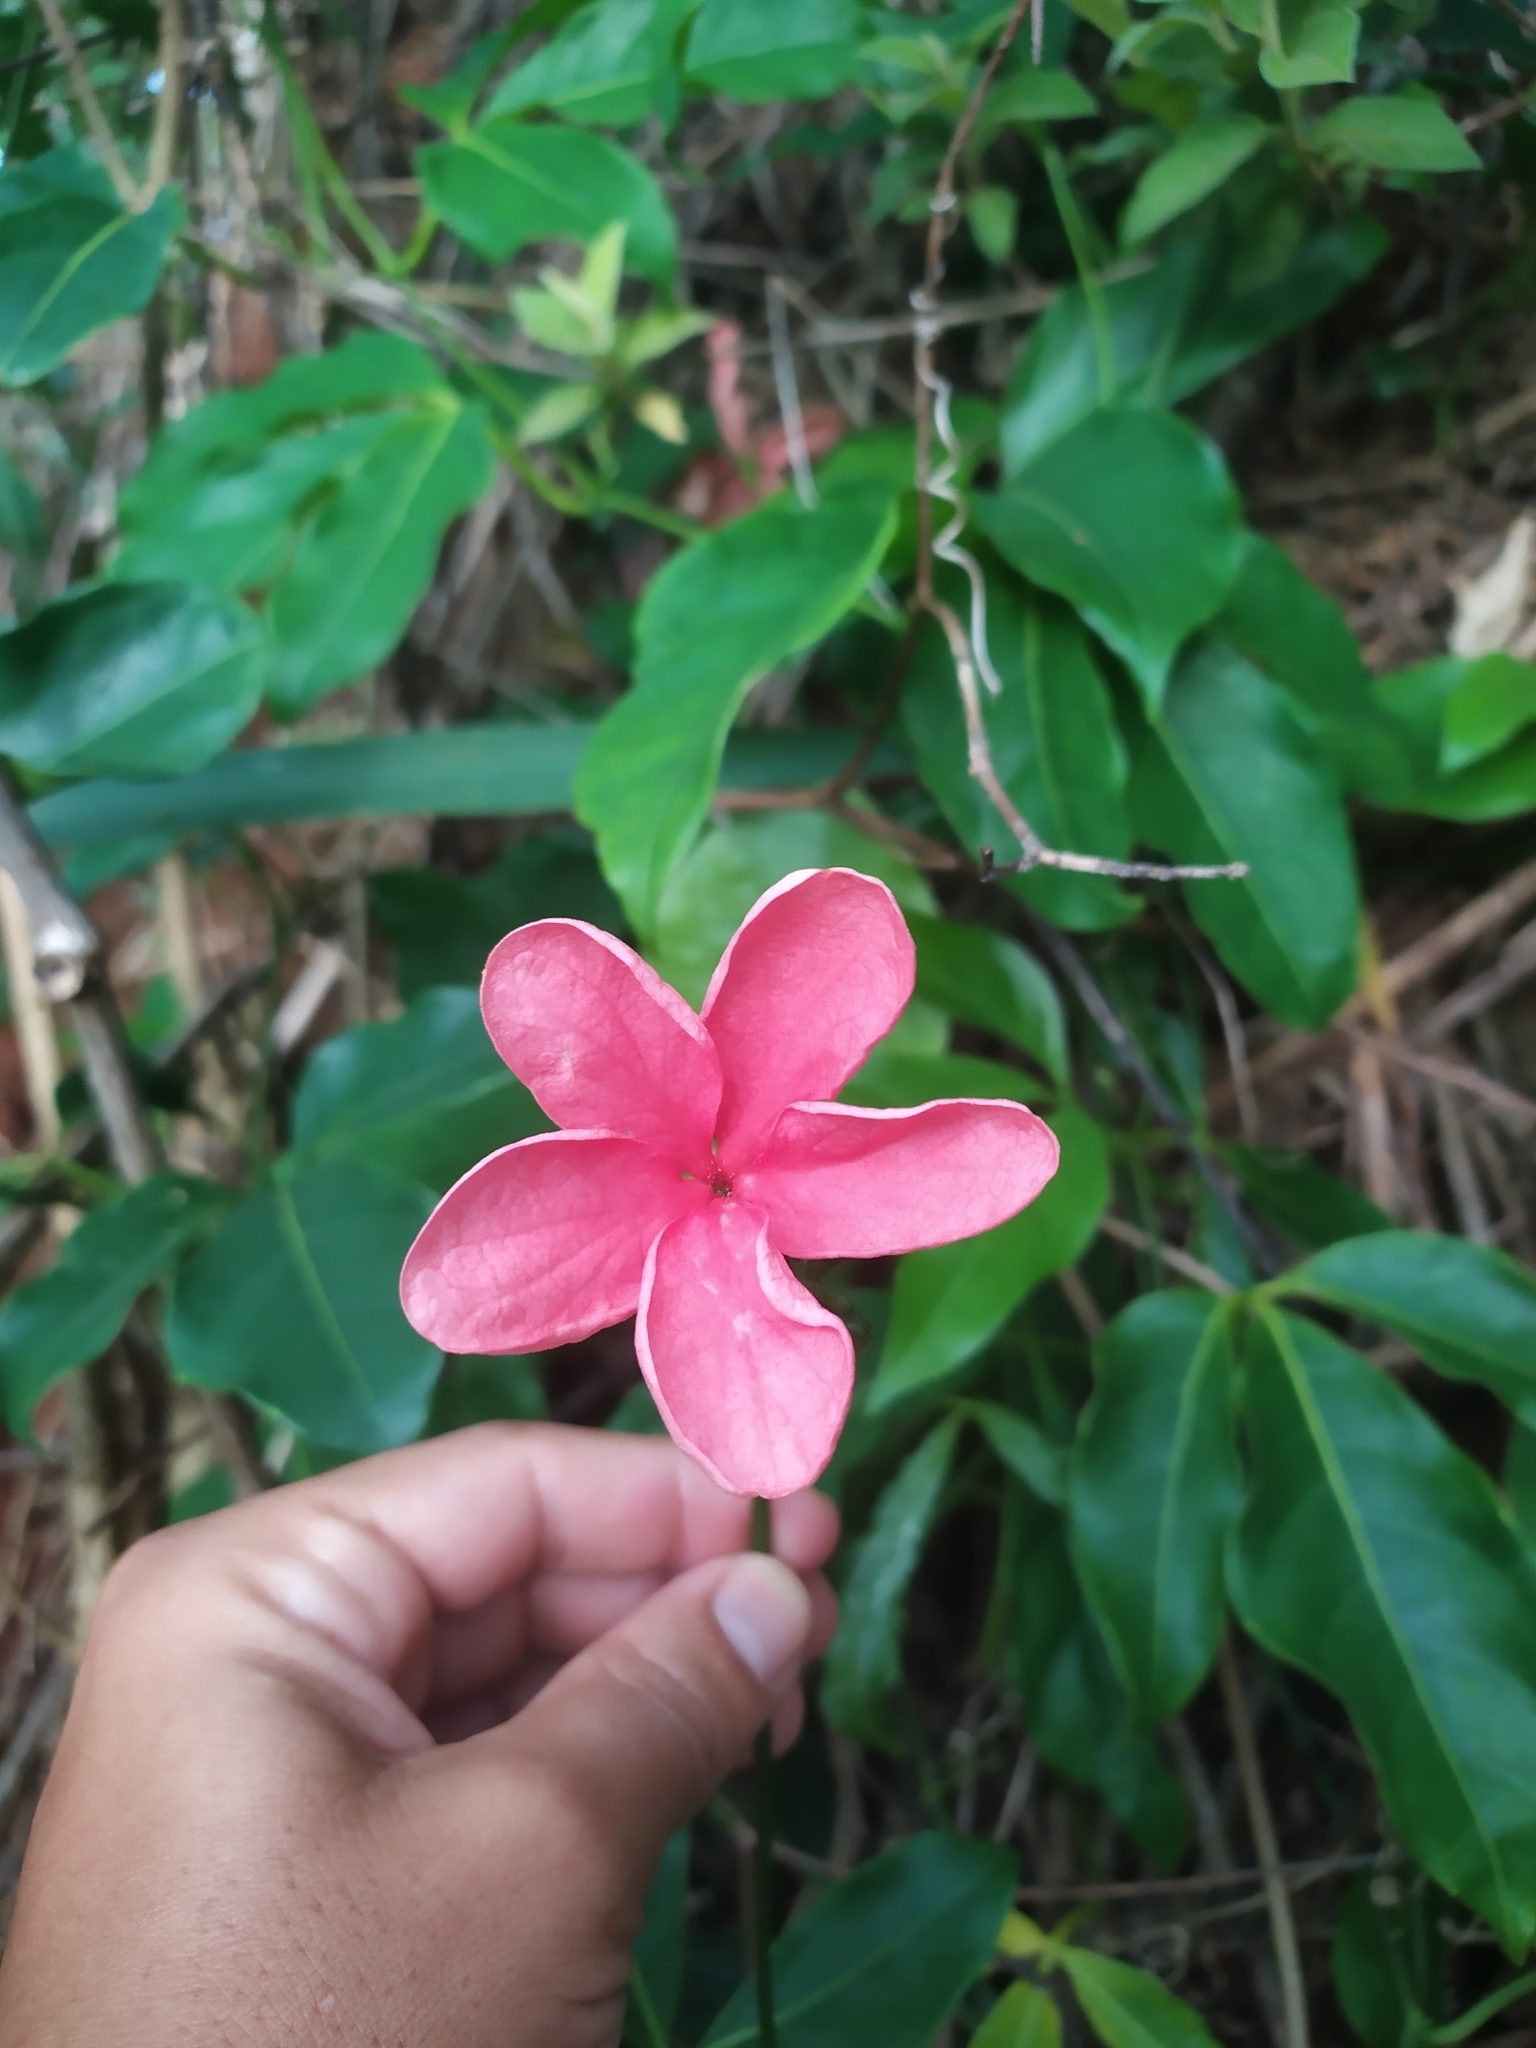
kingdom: Plantae
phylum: Tracheophyta
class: Magnoliopsida
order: Cucurbitales
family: Cucurbitaceae
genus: Psiguria
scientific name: Psiguria ternata
